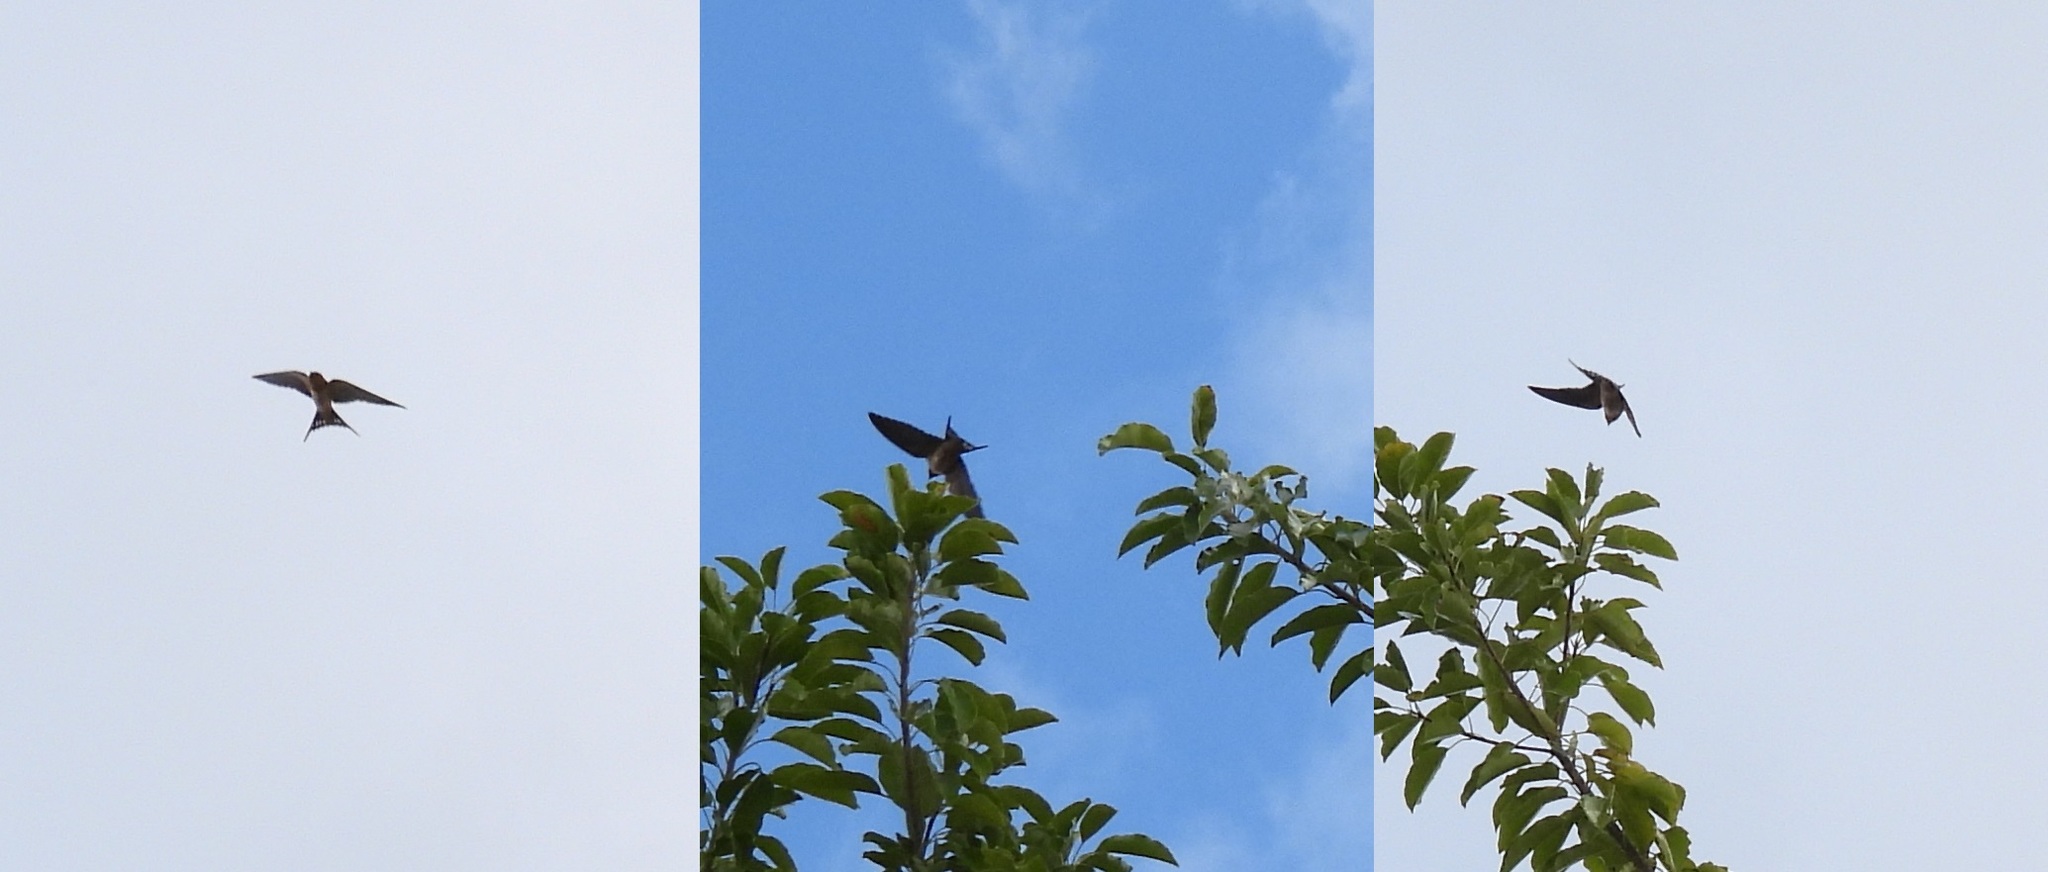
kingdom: Animalia
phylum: Chordata
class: Aves
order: Passeriformes
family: Hirundinidae
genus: Hirundo
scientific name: Hirundo rustica
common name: Barn swallow
